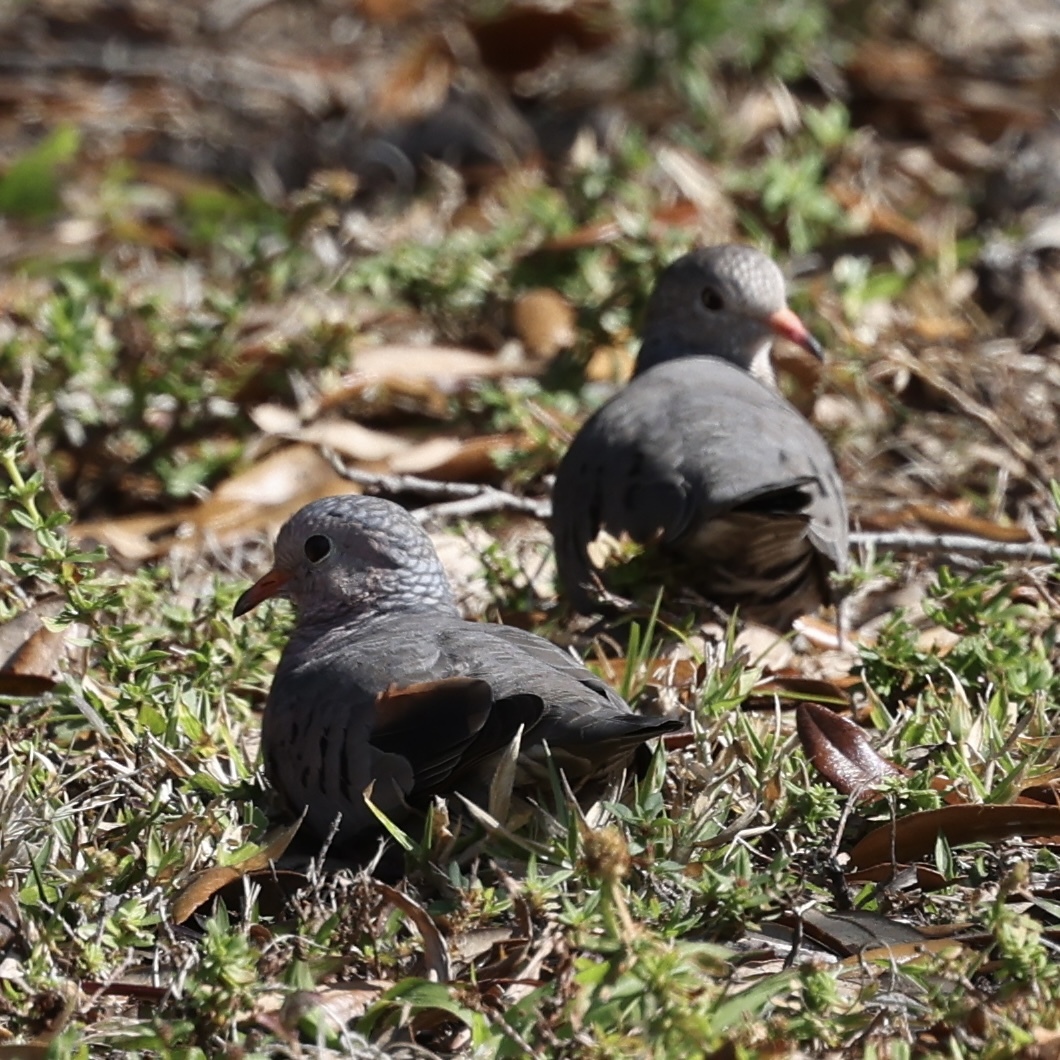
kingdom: Animalia
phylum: Chordata
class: Aves
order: Columbiformes
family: Columbidae
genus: Columbina
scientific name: Columbina passerina
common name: Common ground-dove
